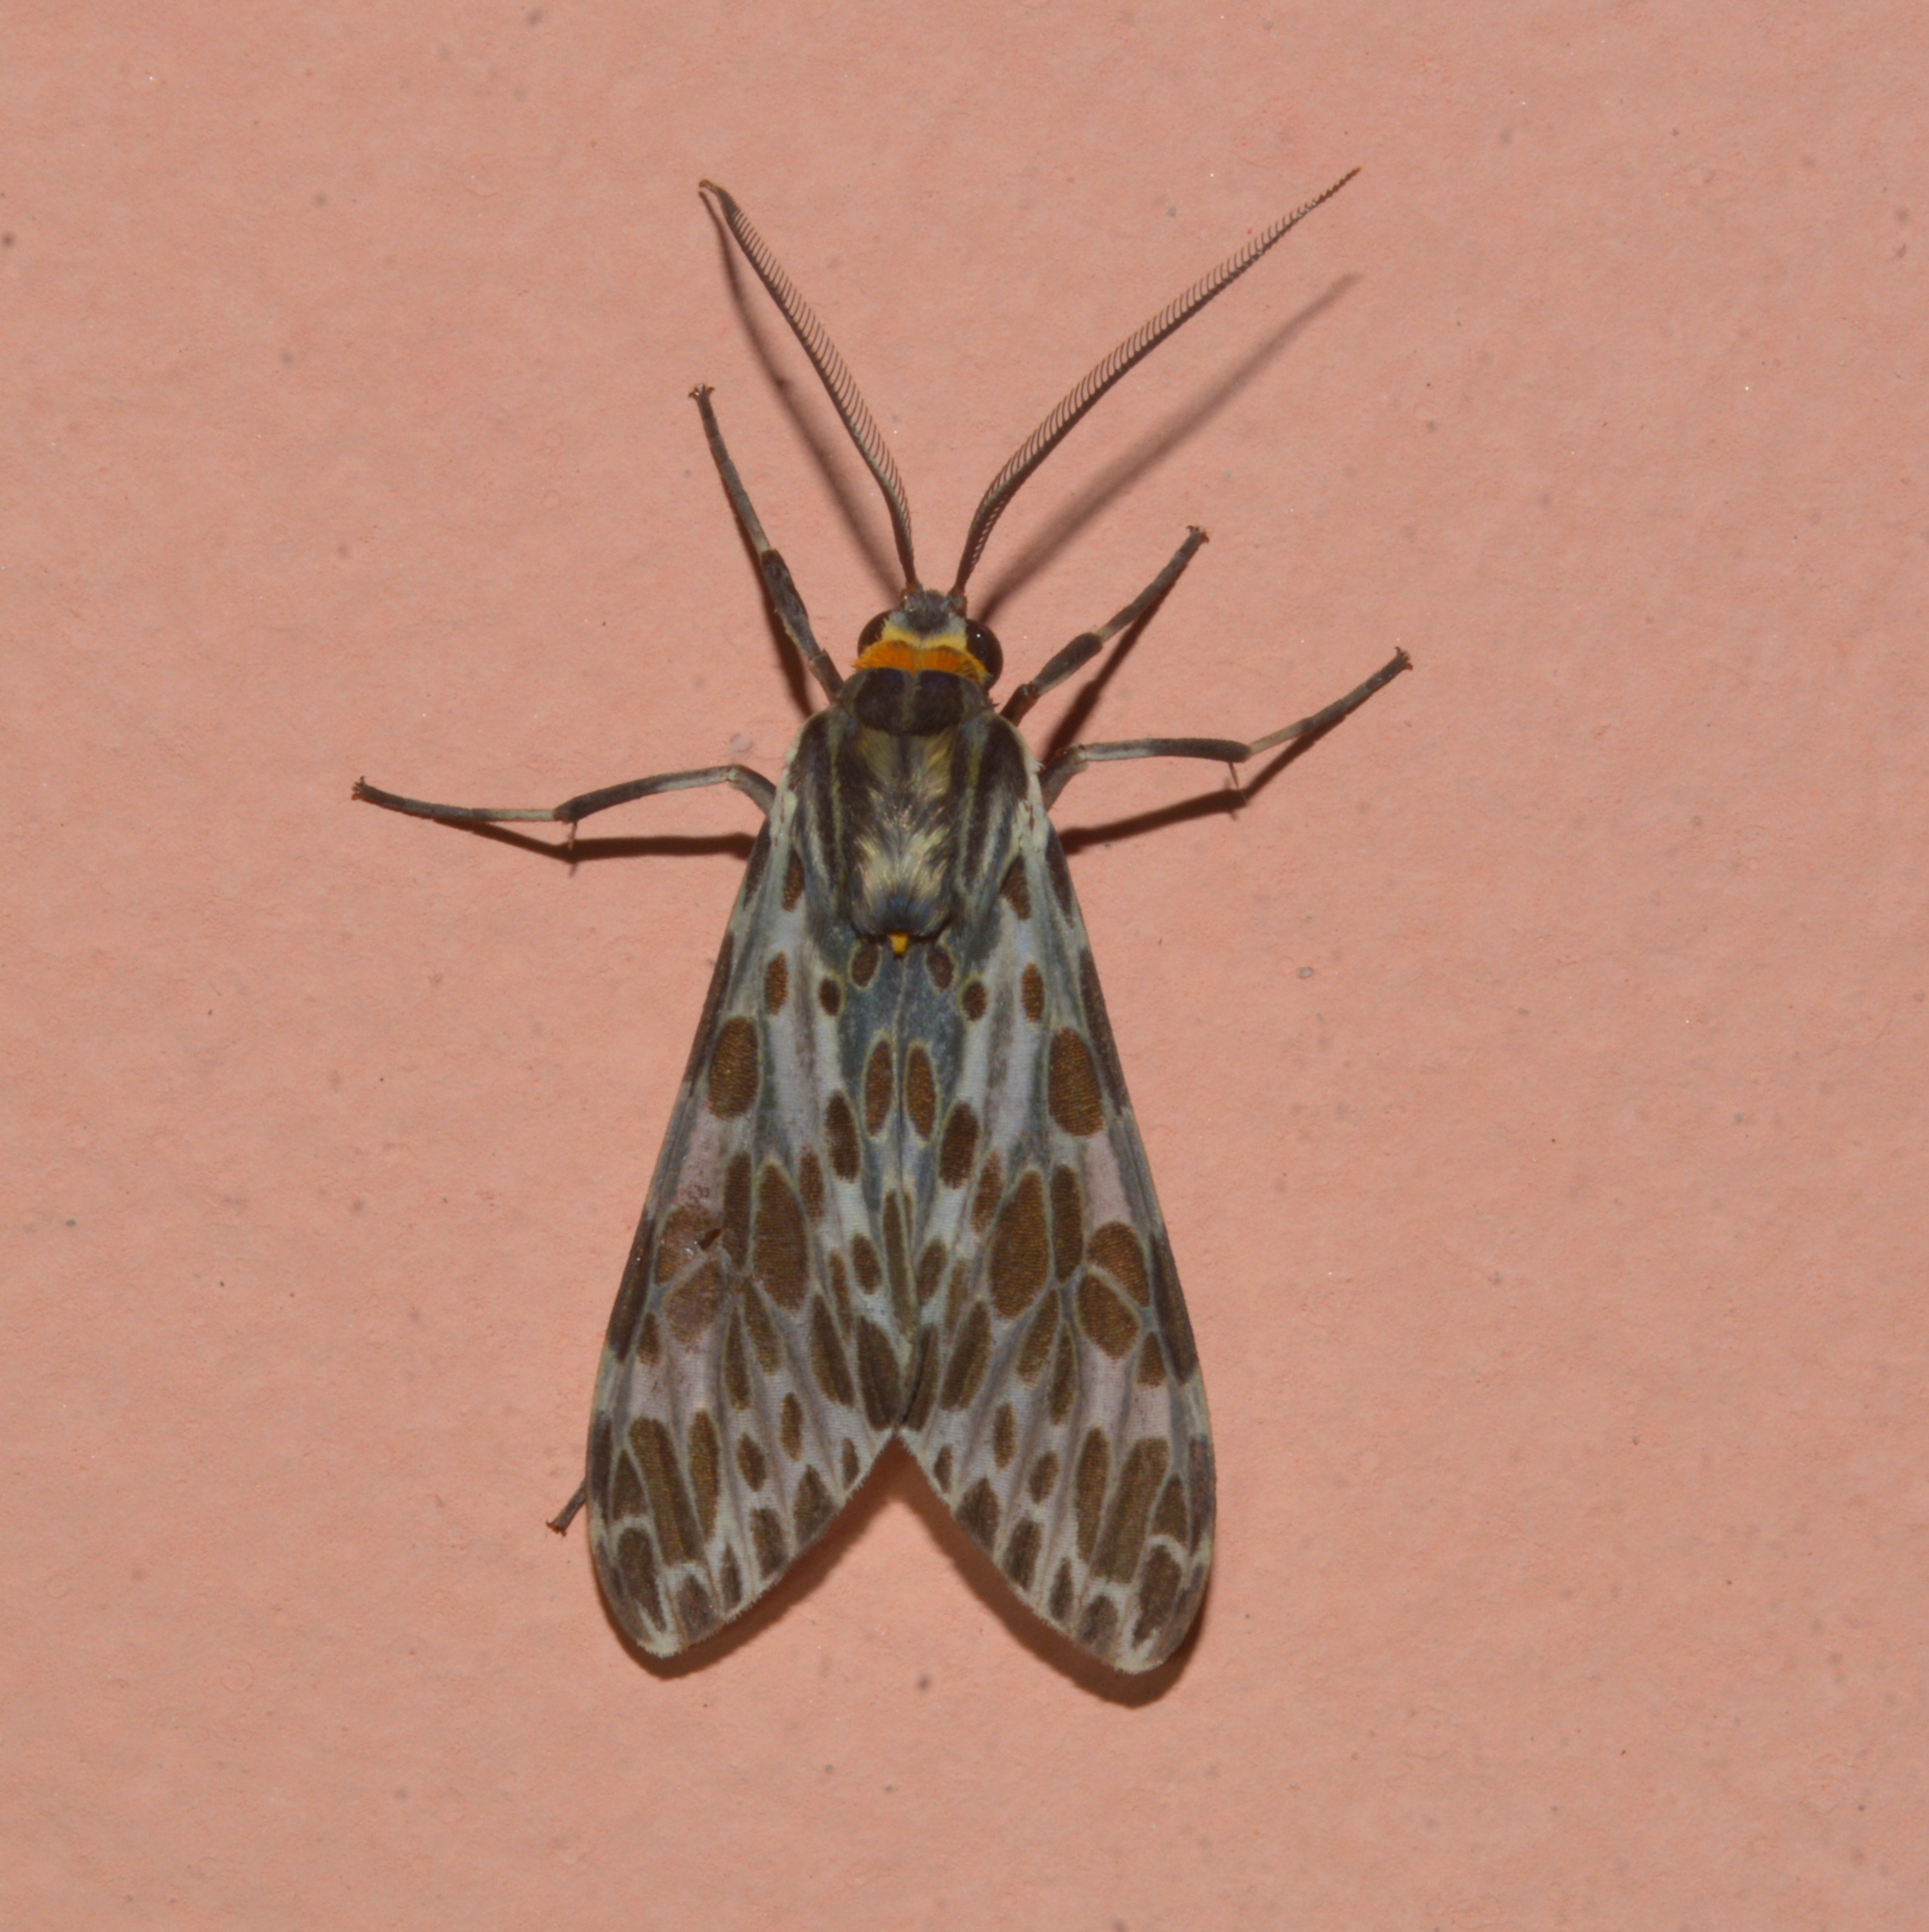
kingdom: Animalia
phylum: Arthropoda
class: Insecta
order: Lepidoptera
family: Erebidae
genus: Eucereon
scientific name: Eucereon
